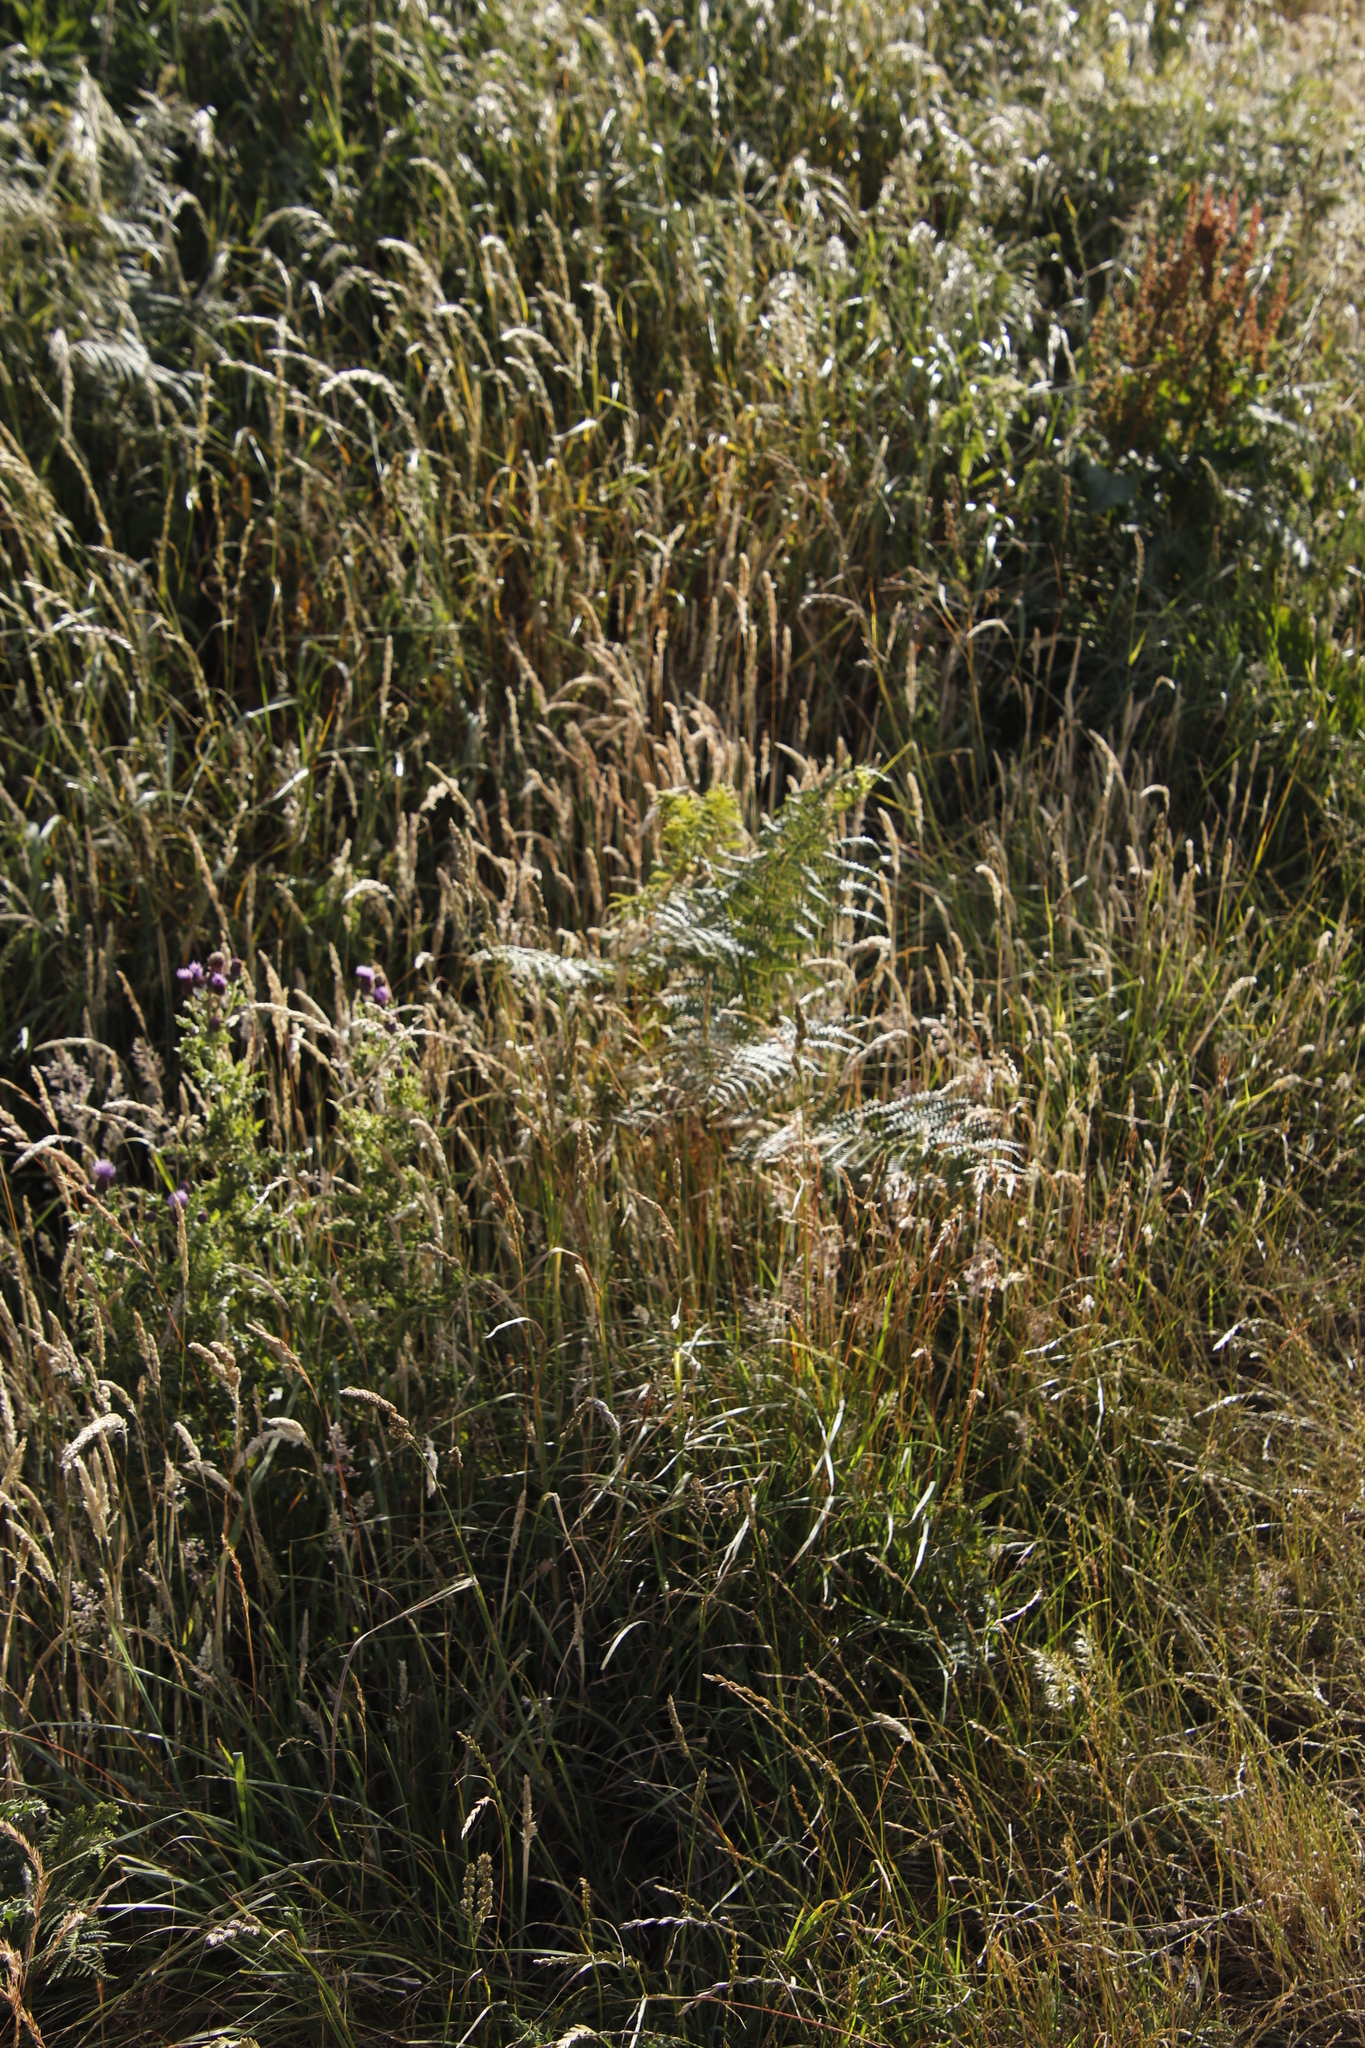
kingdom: Plantae
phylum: Tracheophyta
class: Polypodiopsida
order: Polypodiales
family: Dennstaedtiaceae
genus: Pteridium
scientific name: Pteridium aquilinum
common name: Bracken
